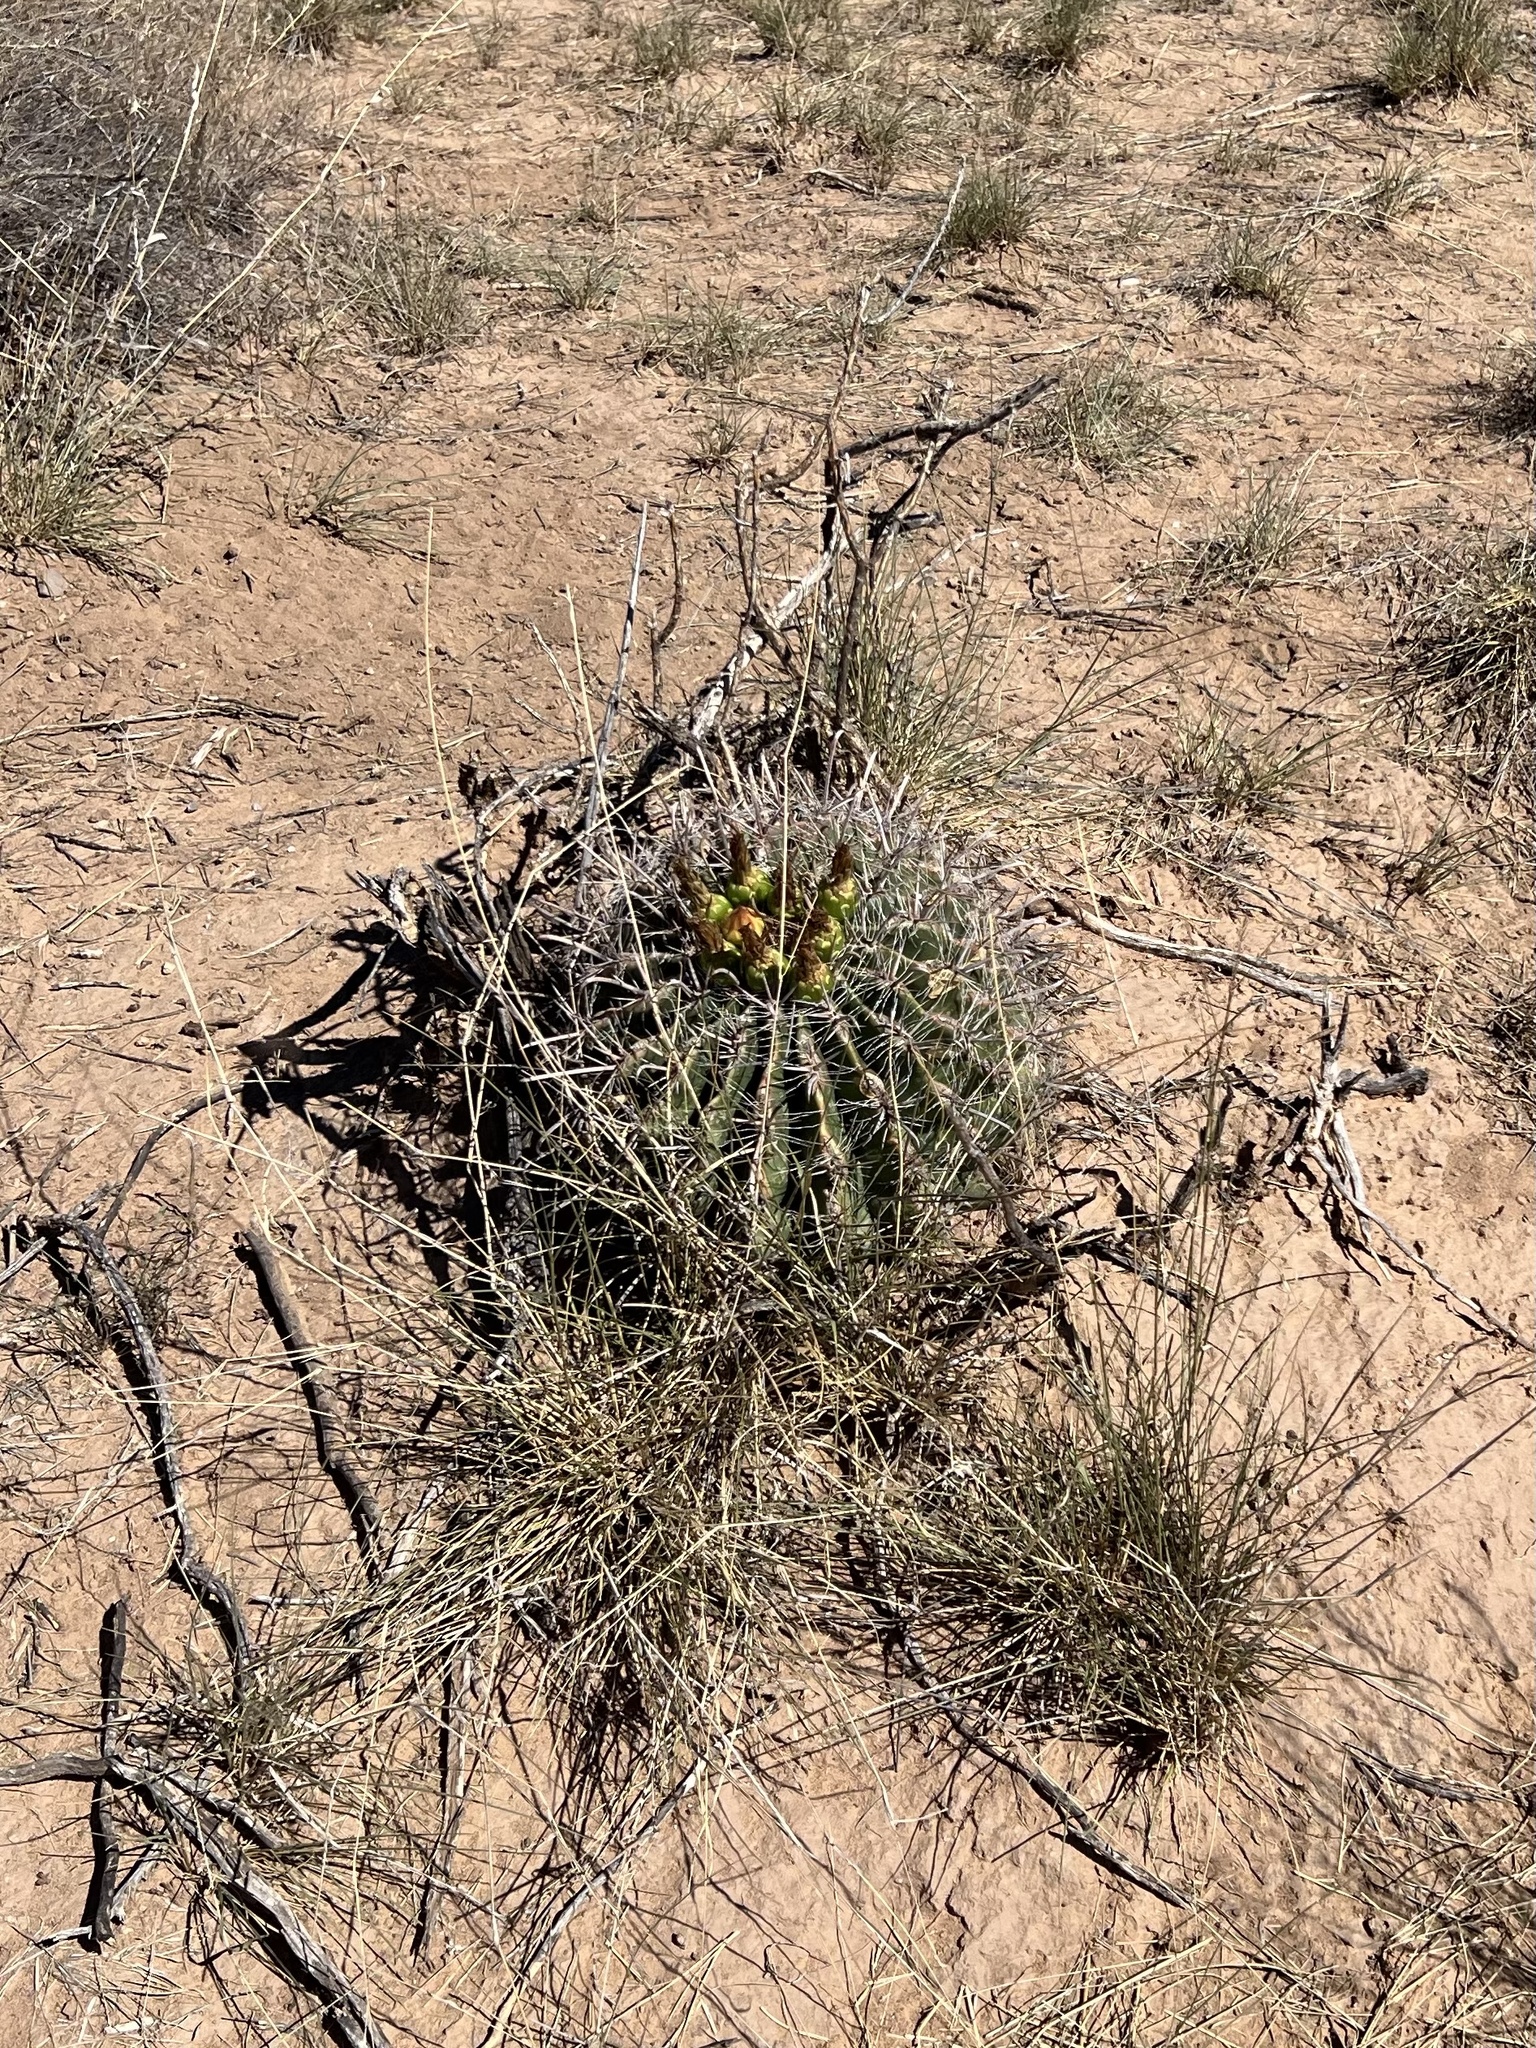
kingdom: Plantae
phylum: Tracheophyta
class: Magnoliopsida
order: Caryophyllales
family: Cactaceae
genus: Ferocactus
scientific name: Ferocactus wislizeni
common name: Candy barrel cactus
